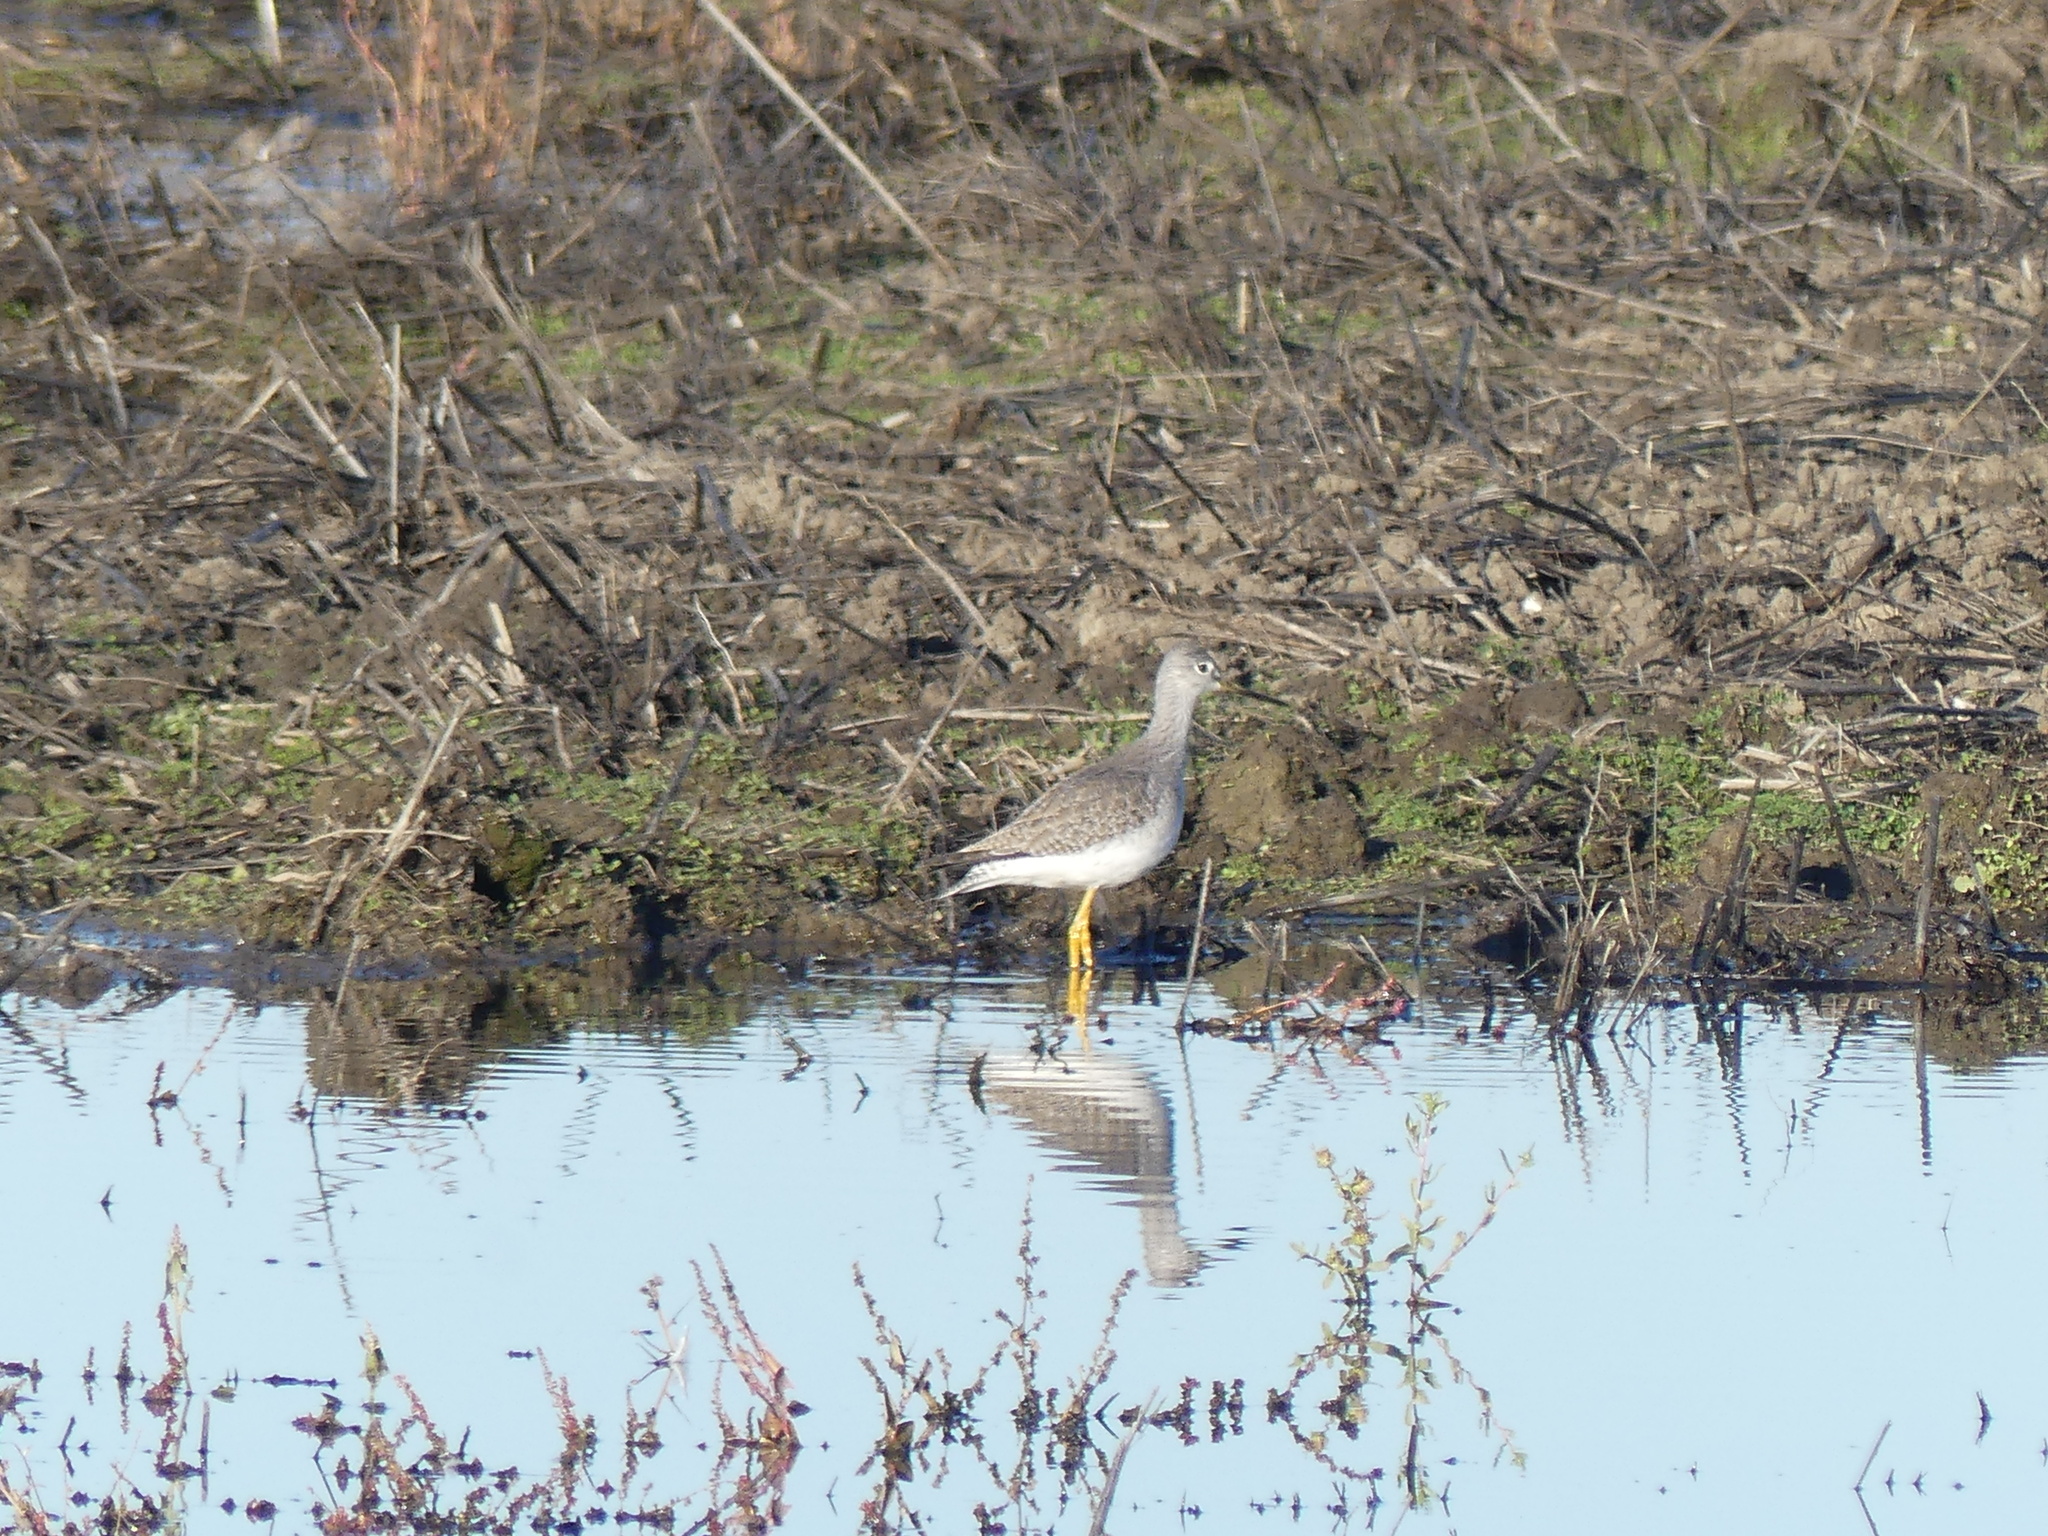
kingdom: Animalia
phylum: Chordata
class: Aves
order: Charadriiformes
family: Scolopacidae
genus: Tringa
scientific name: Tringa melanoleuca
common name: Greater yellowlegs
